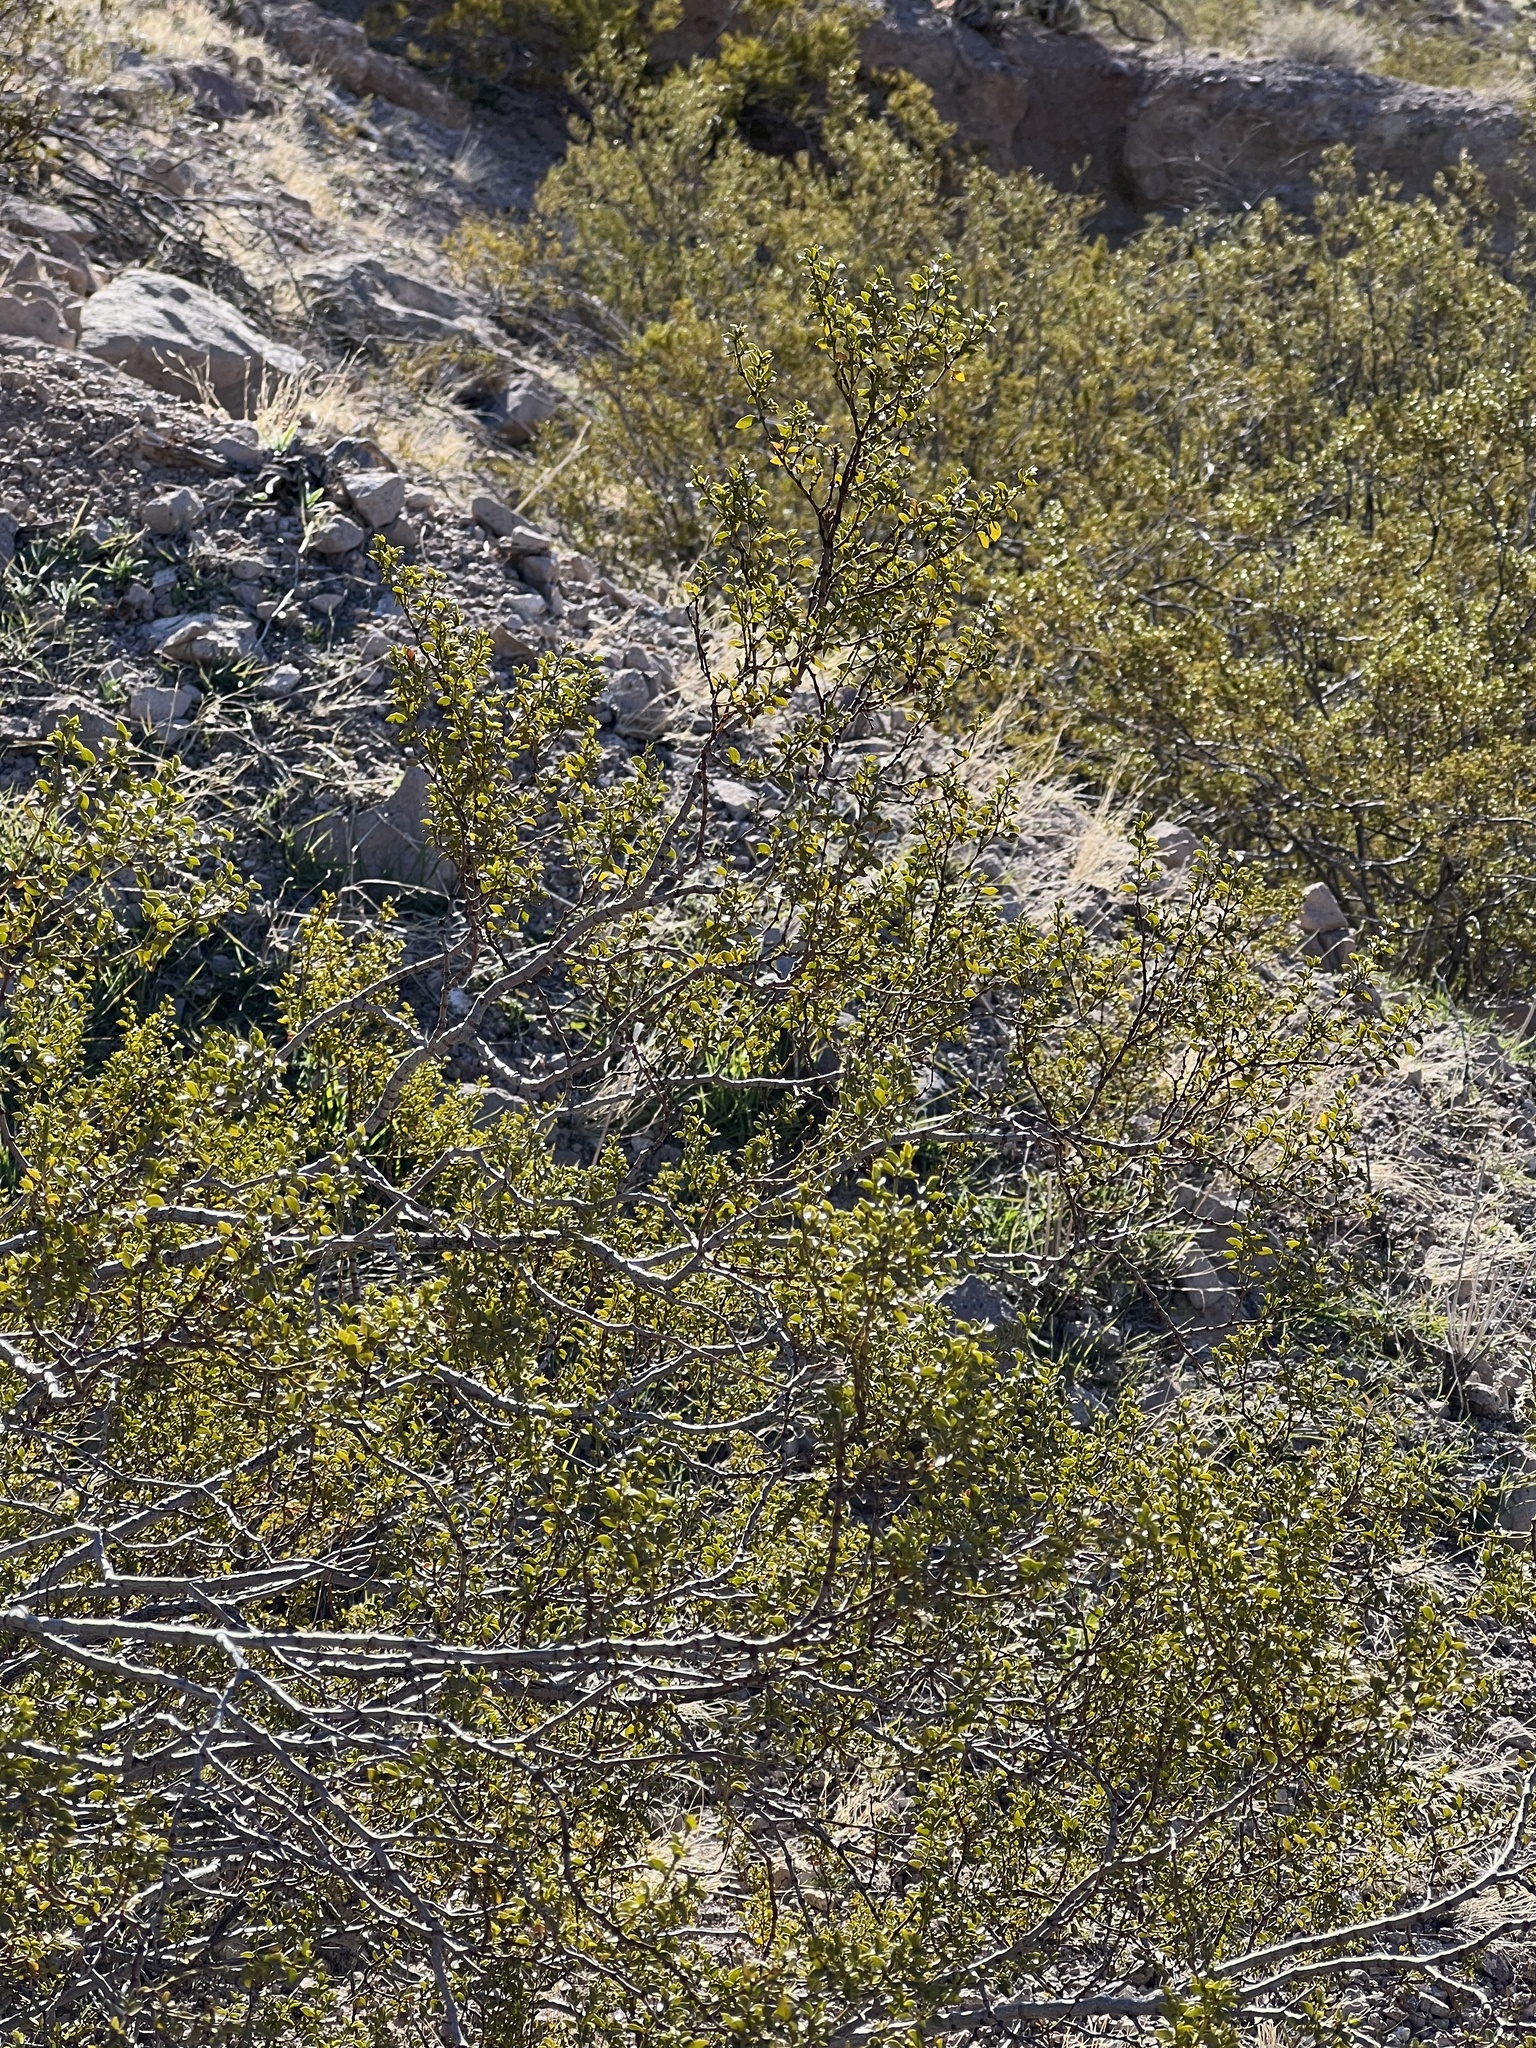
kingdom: Plantae
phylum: Tracheophyta
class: Magnoliopsida
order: Zygophyllales
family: Zygophyllaceae
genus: Larrea
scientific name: Larrea tridentata
